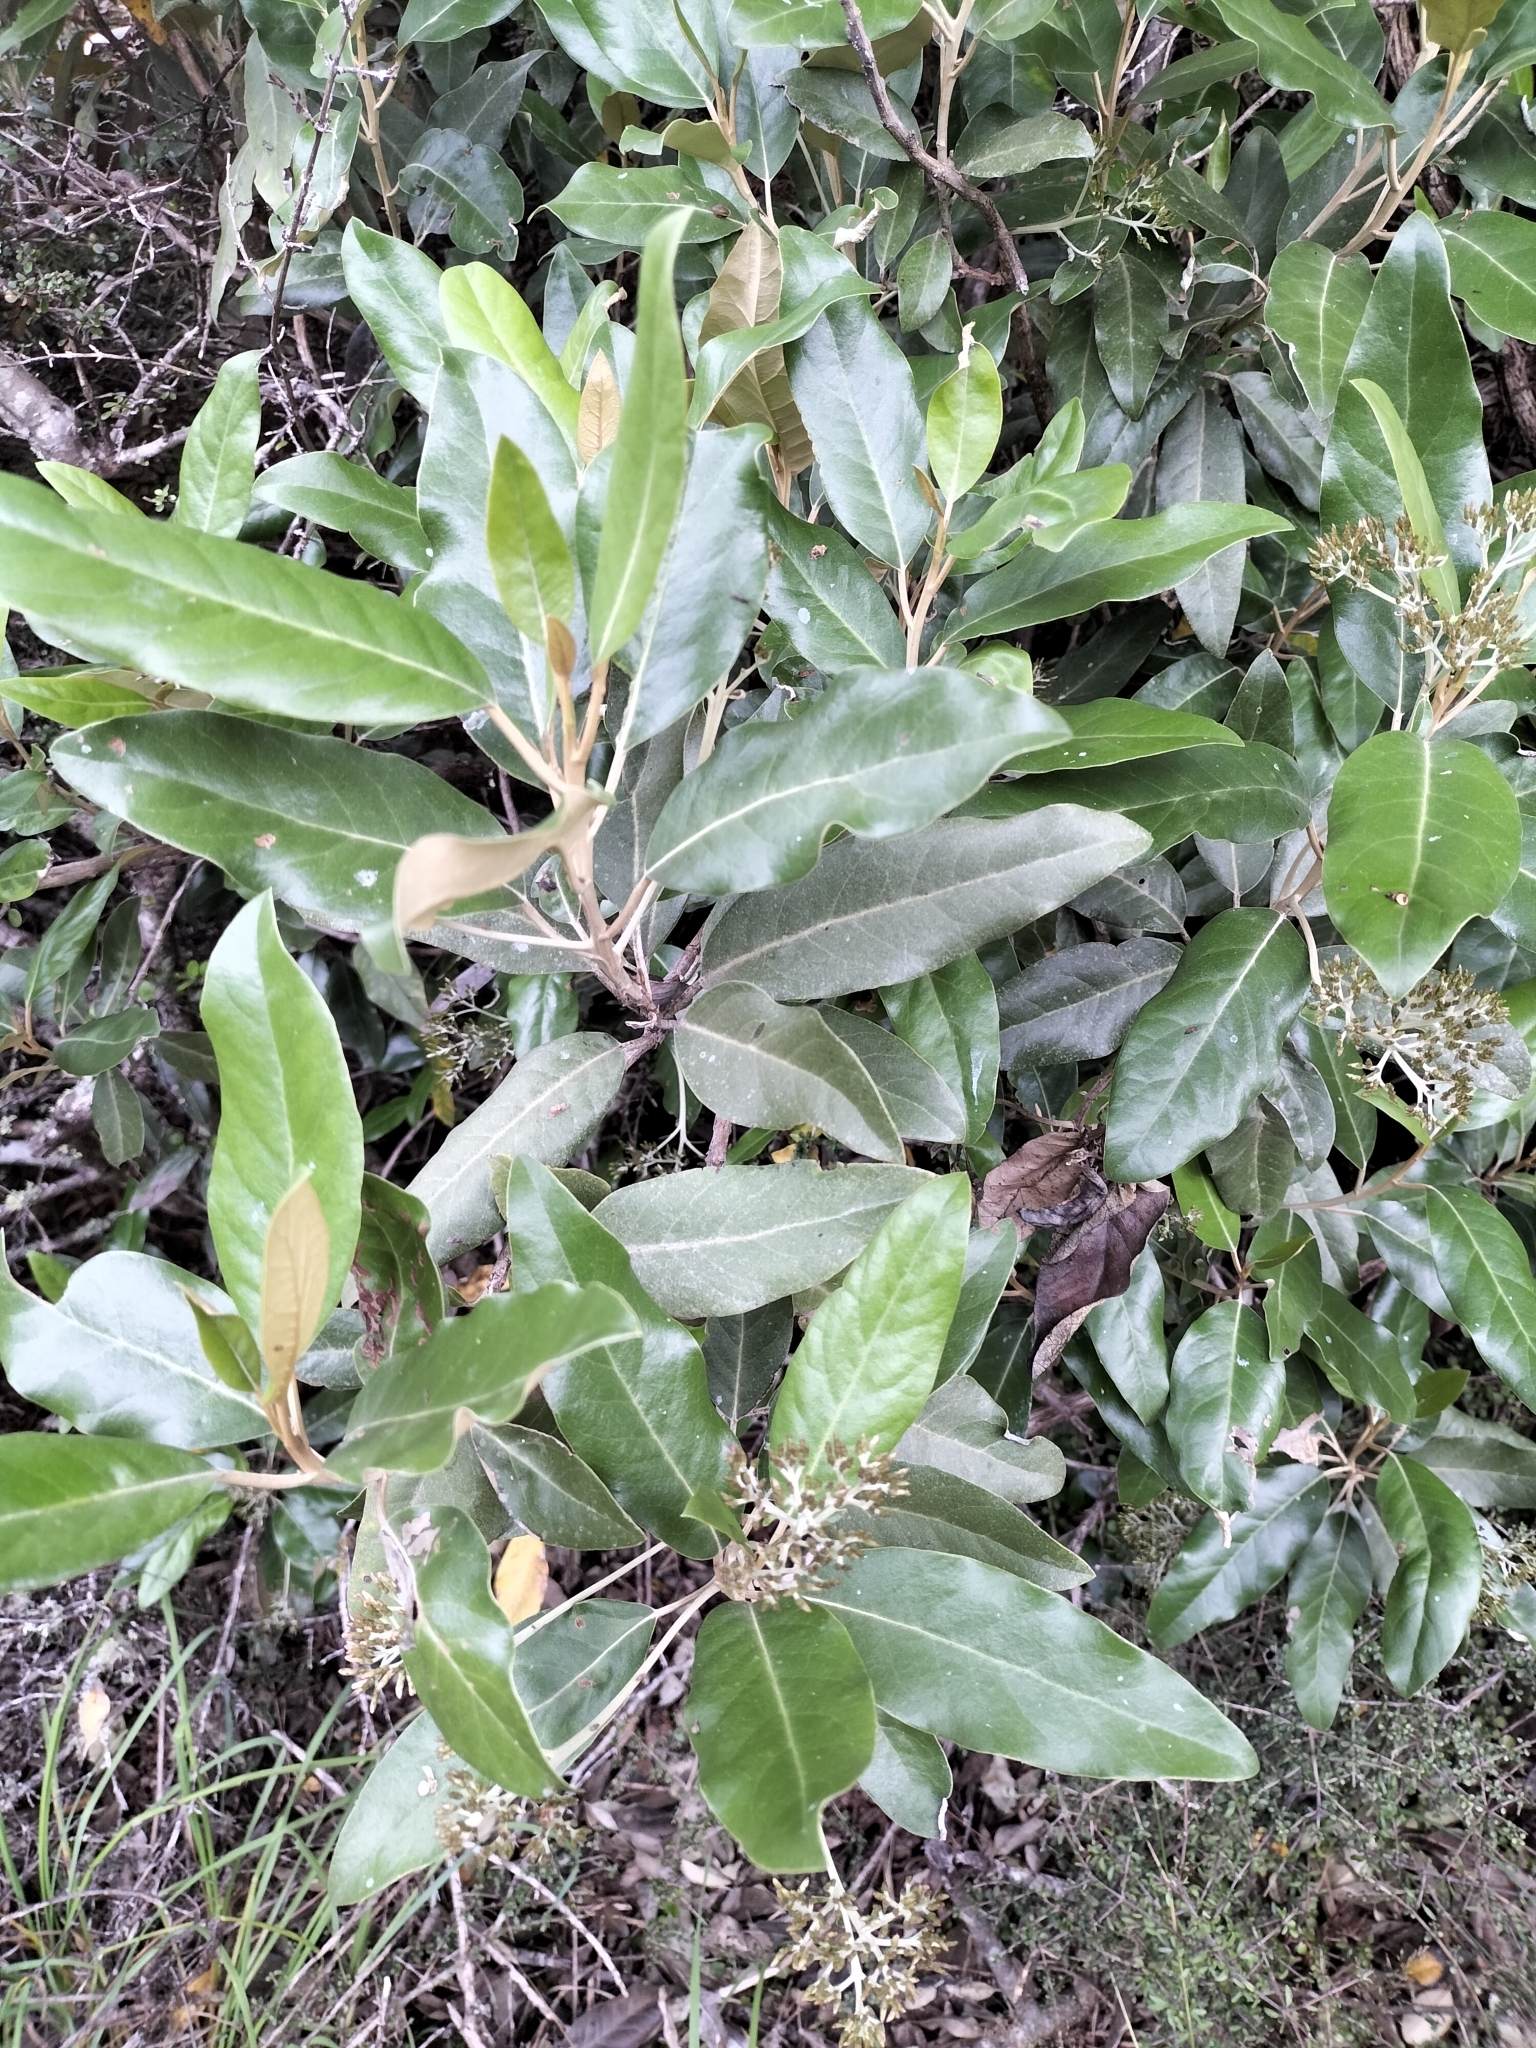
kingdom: Plantae
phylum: Tracheophyta
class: Magnoliopsida
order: Asterales
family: Asteraceae
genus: Olearia
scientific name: Olearia avicenniifolia
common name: Mangrove-leaf daisybush
